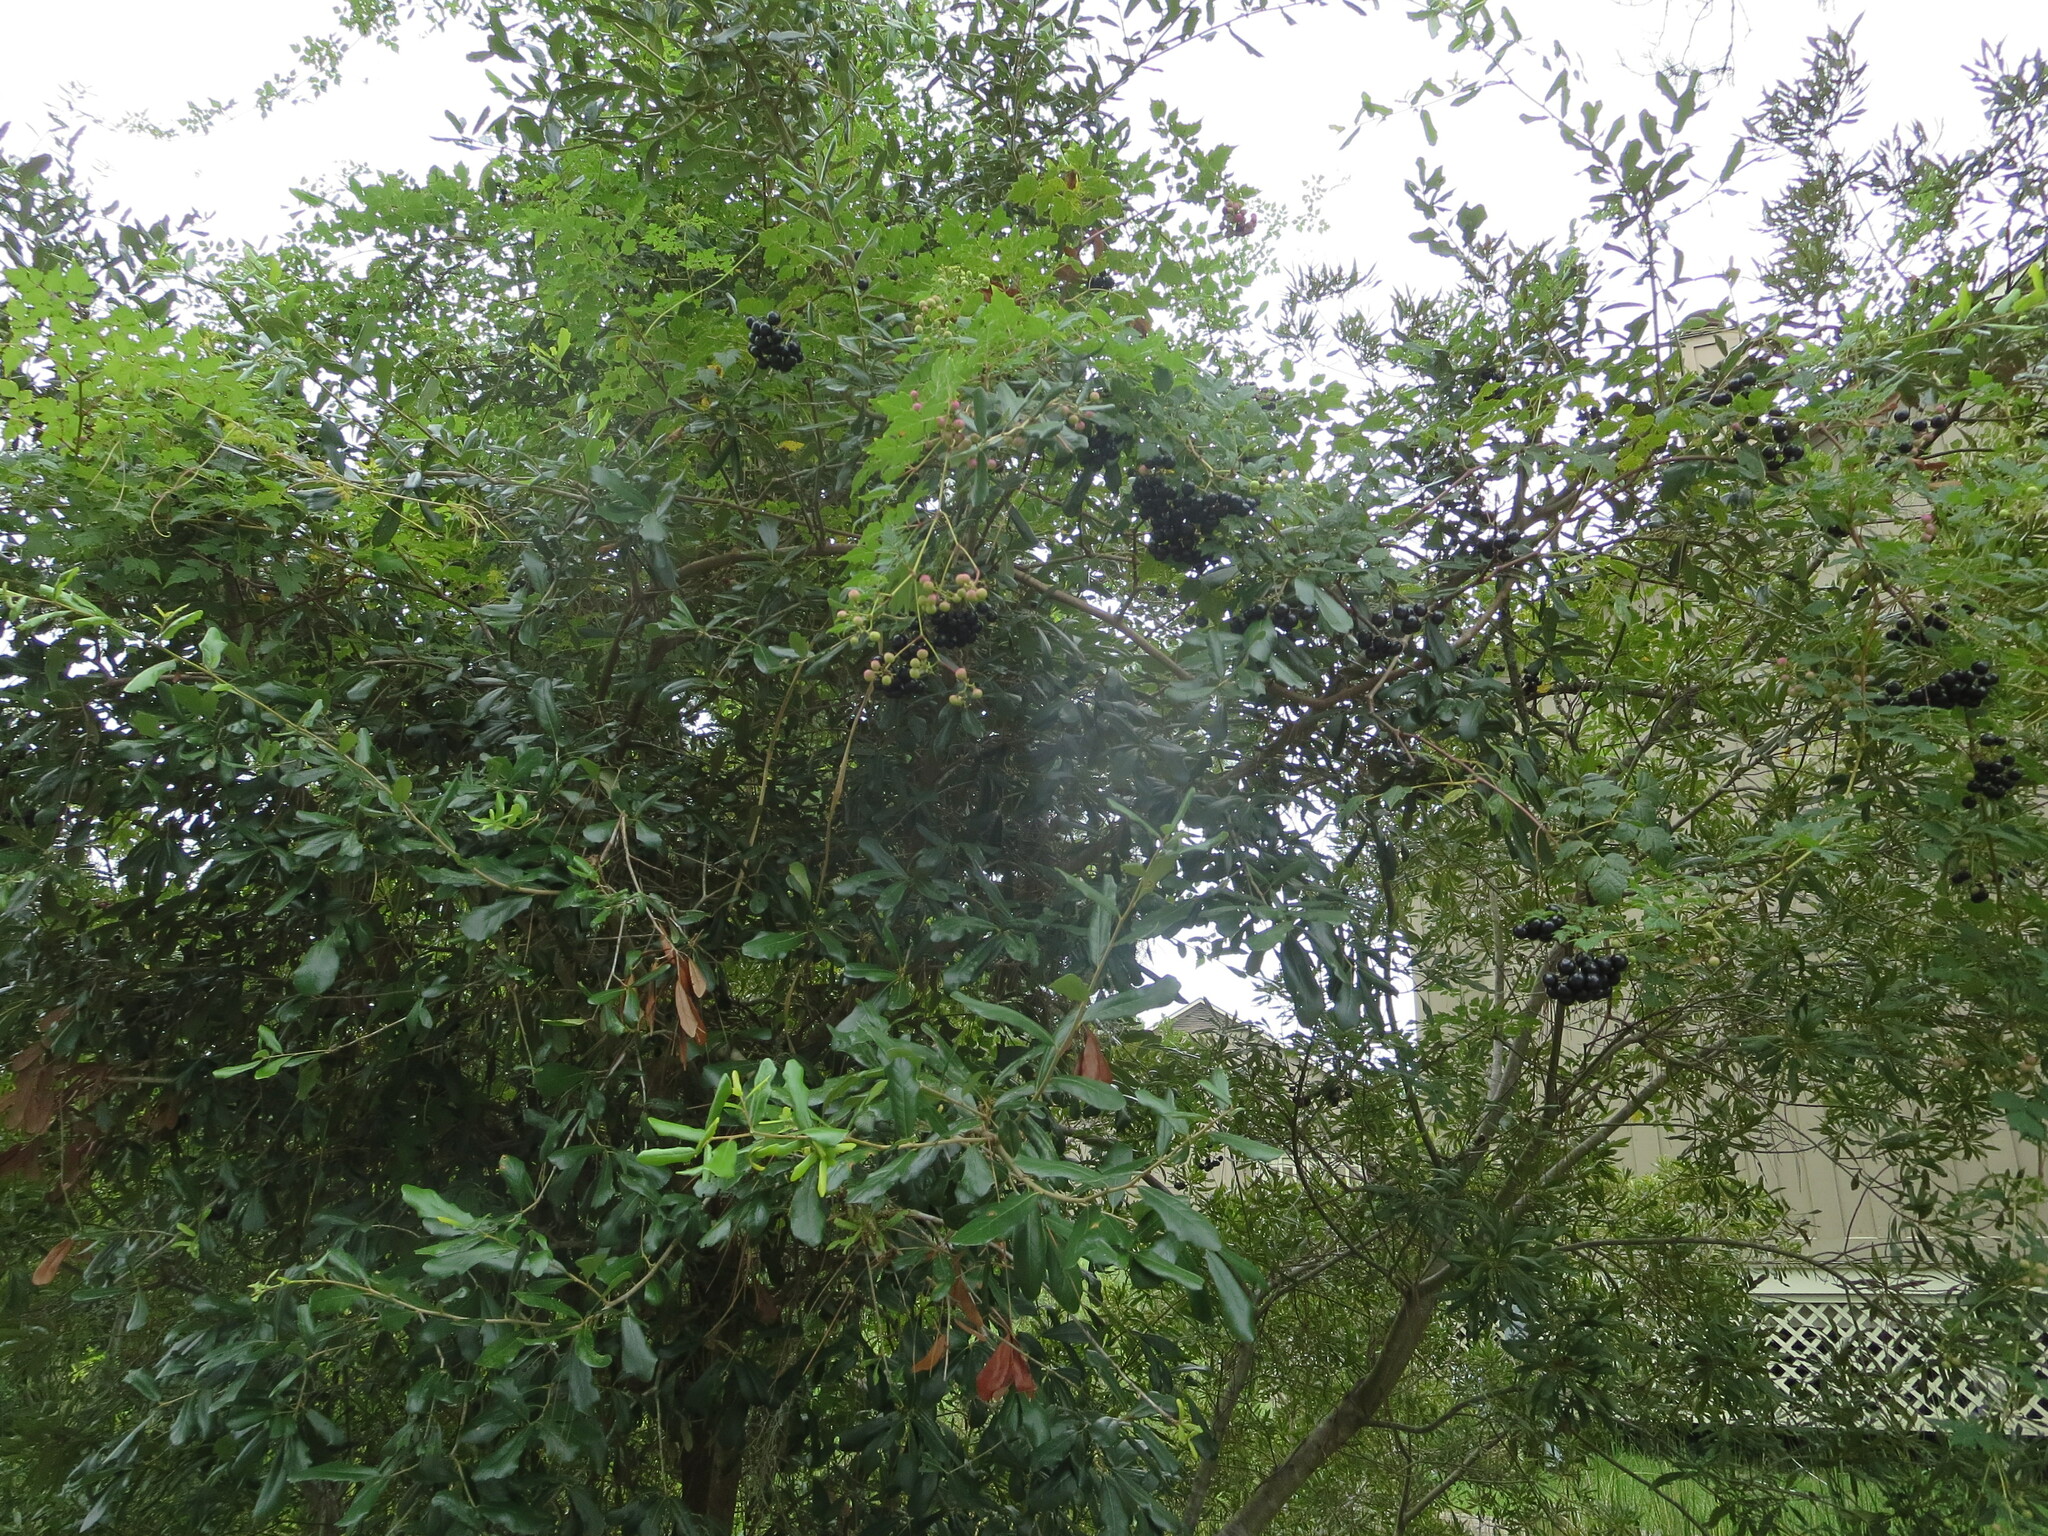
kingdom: Plantae
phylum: Tracheophyta
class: Magnoliopsida
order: Vitales
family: Vitaceae
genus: Nekemias
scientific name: Nekemias arborea
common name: Peppervine
